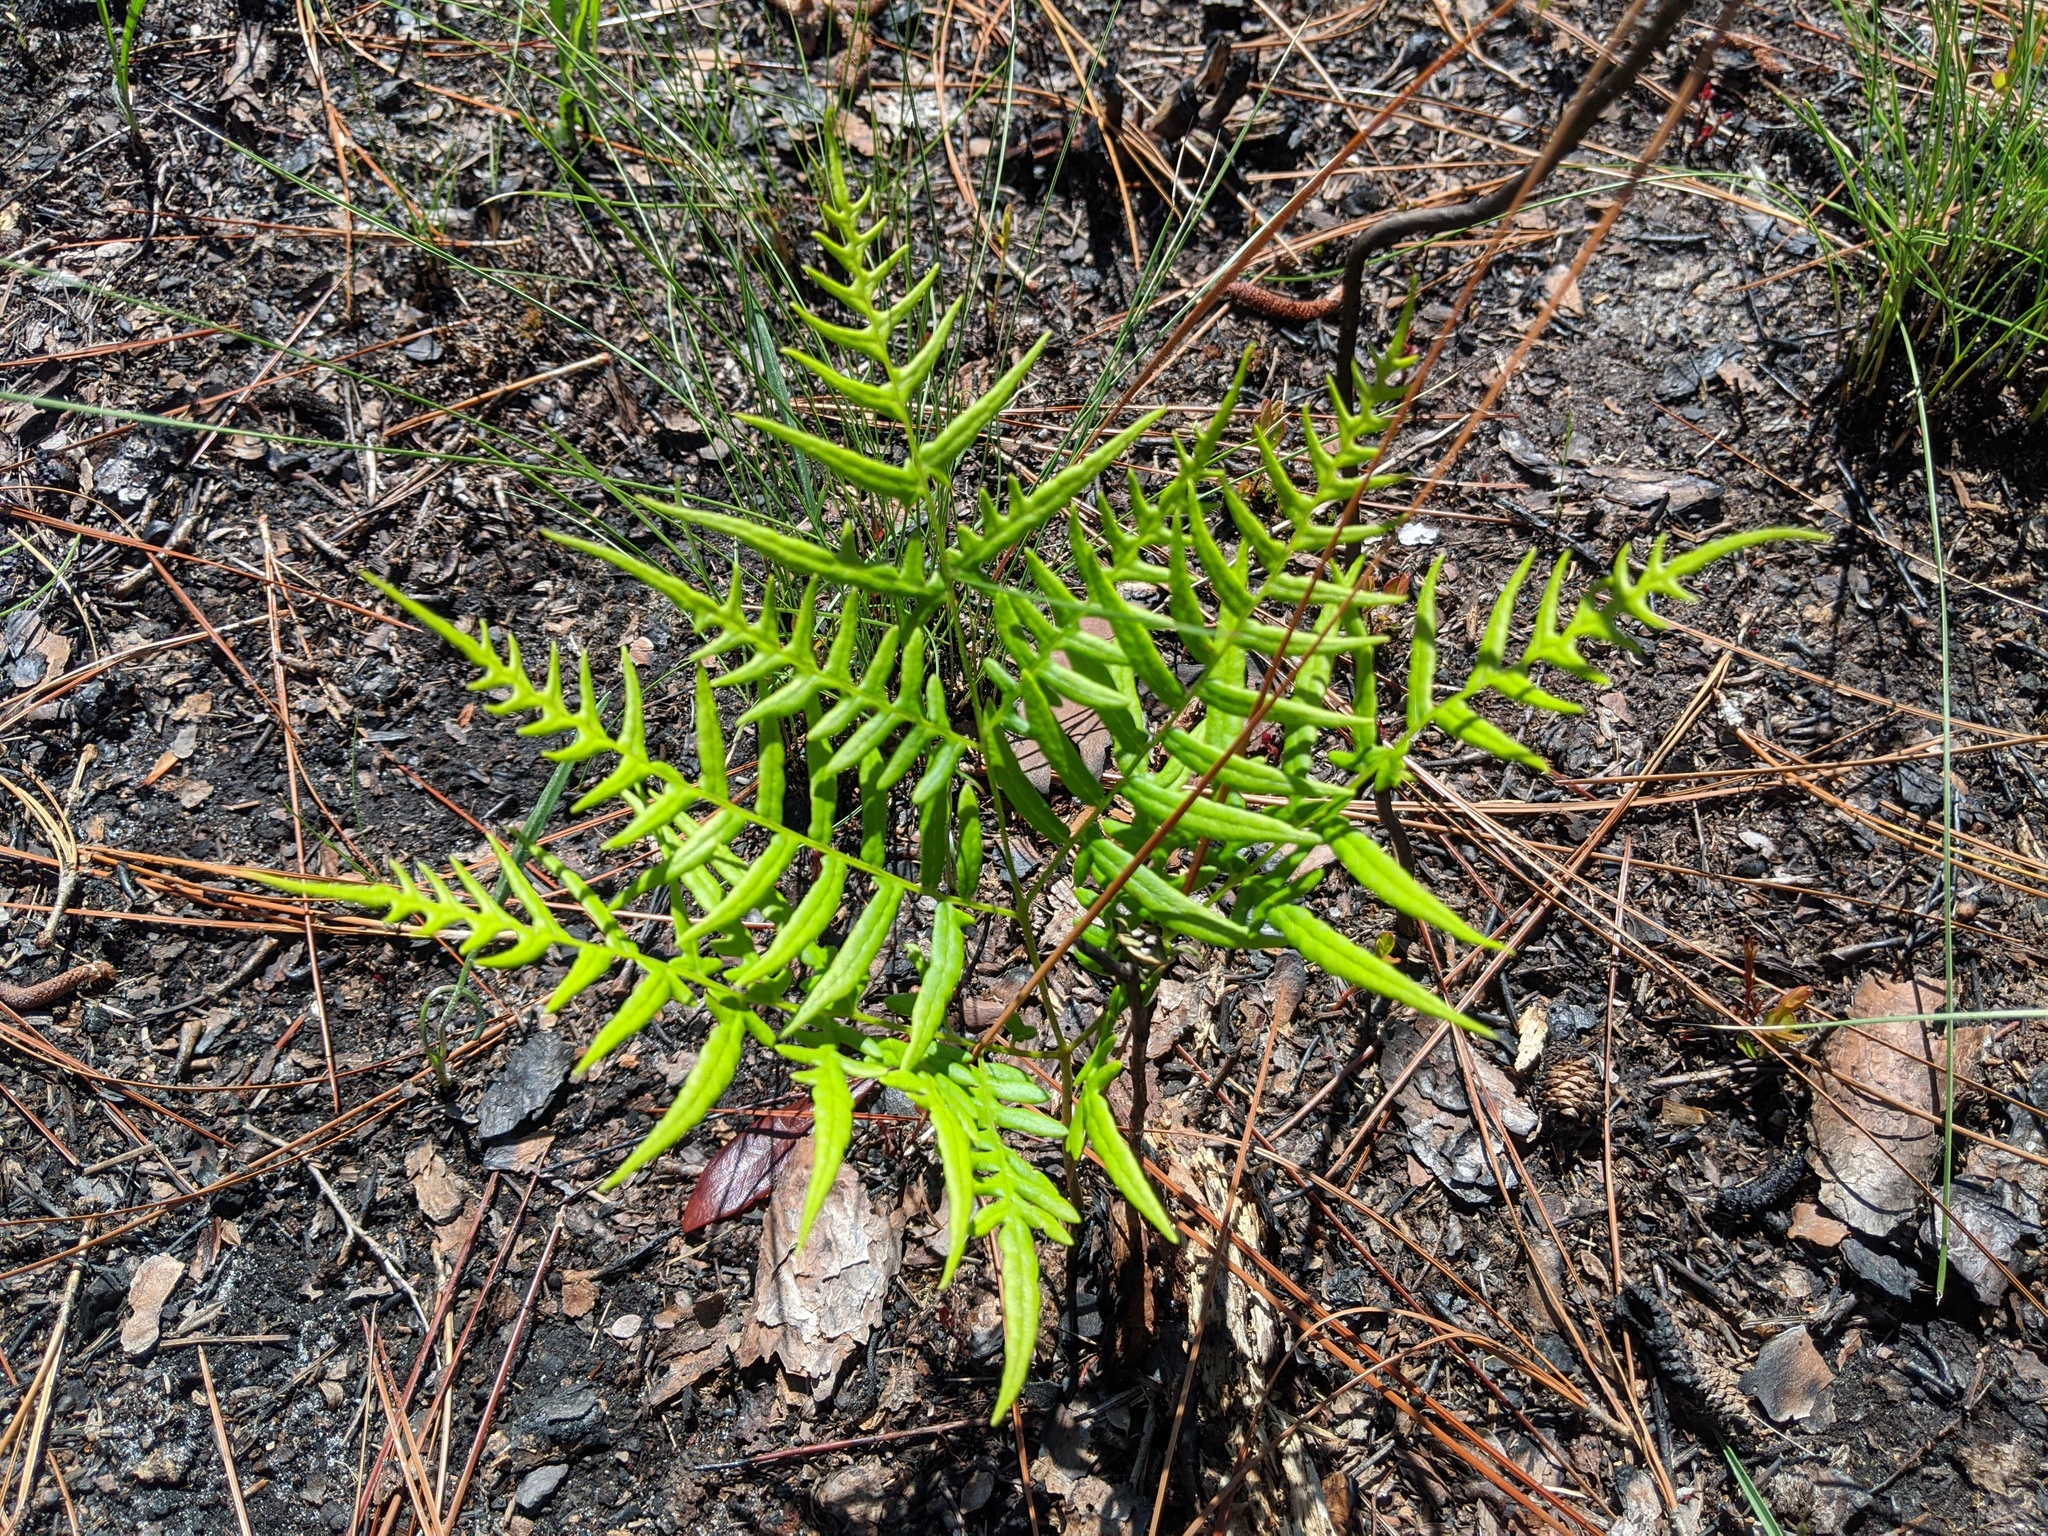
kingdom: Plantae
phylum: Tracheophyta
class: Polypodiopsida
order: Polypodiales
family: Dennstaedtiaceae
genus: Pteridium
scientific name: Pteridium aquilinum
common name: Bracken
